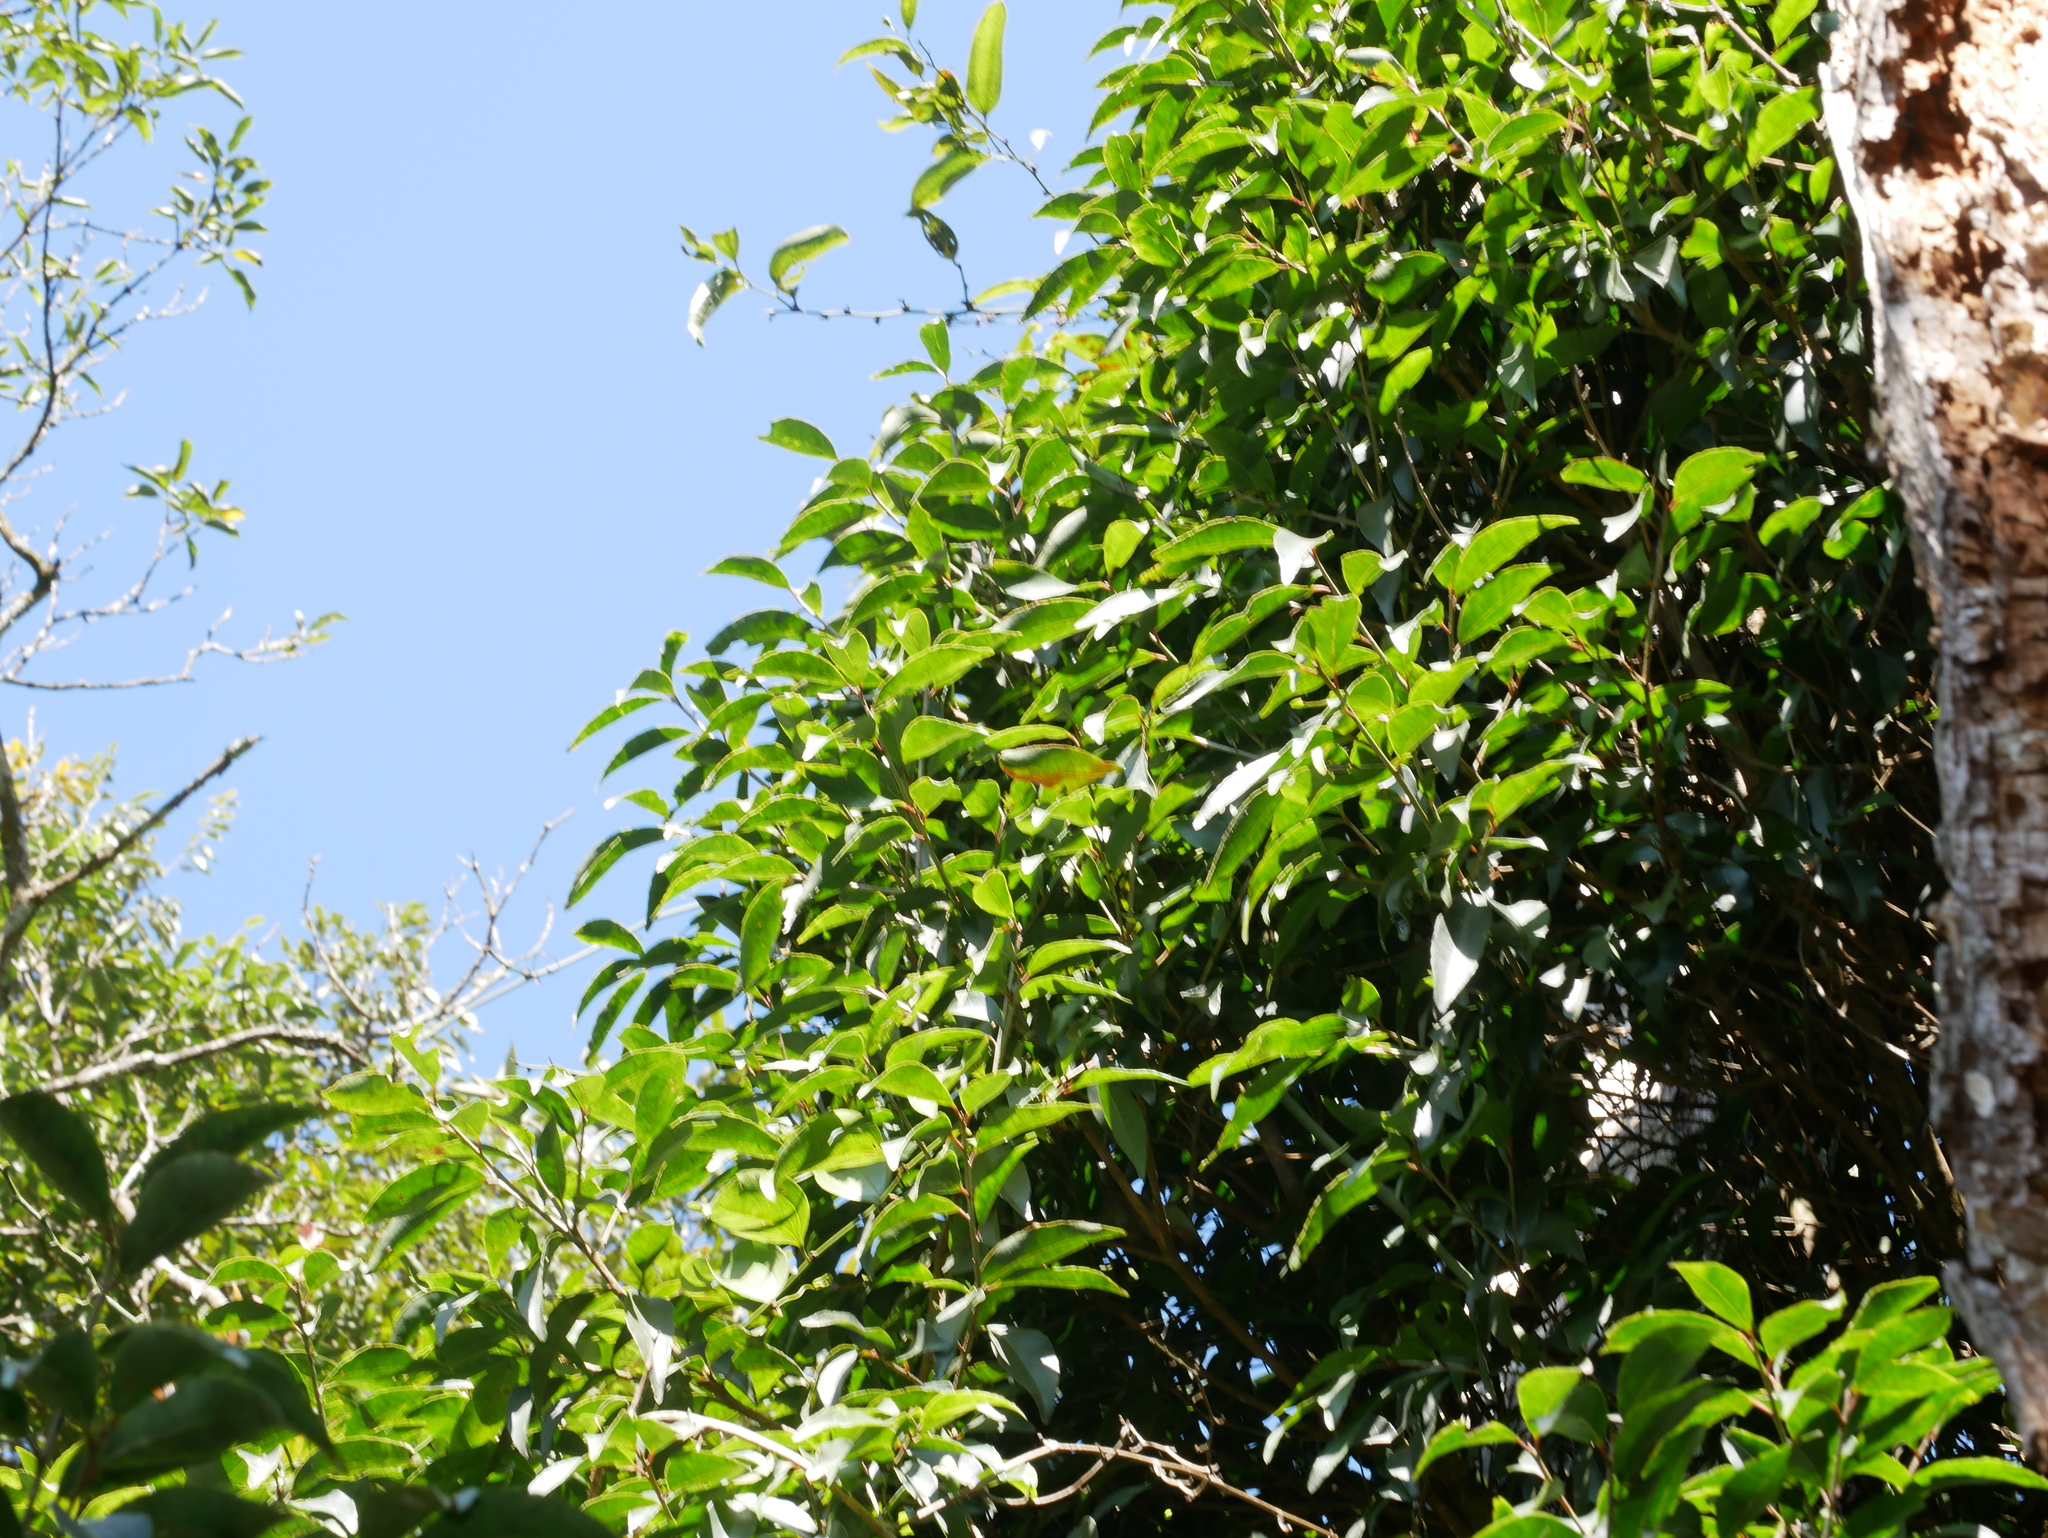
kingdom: Plantae
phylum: Tracheophyta
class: Magnoliopsida
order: Ericales
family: Symplocaceae
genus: Symplocos
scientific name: Symplocos sonoharae
